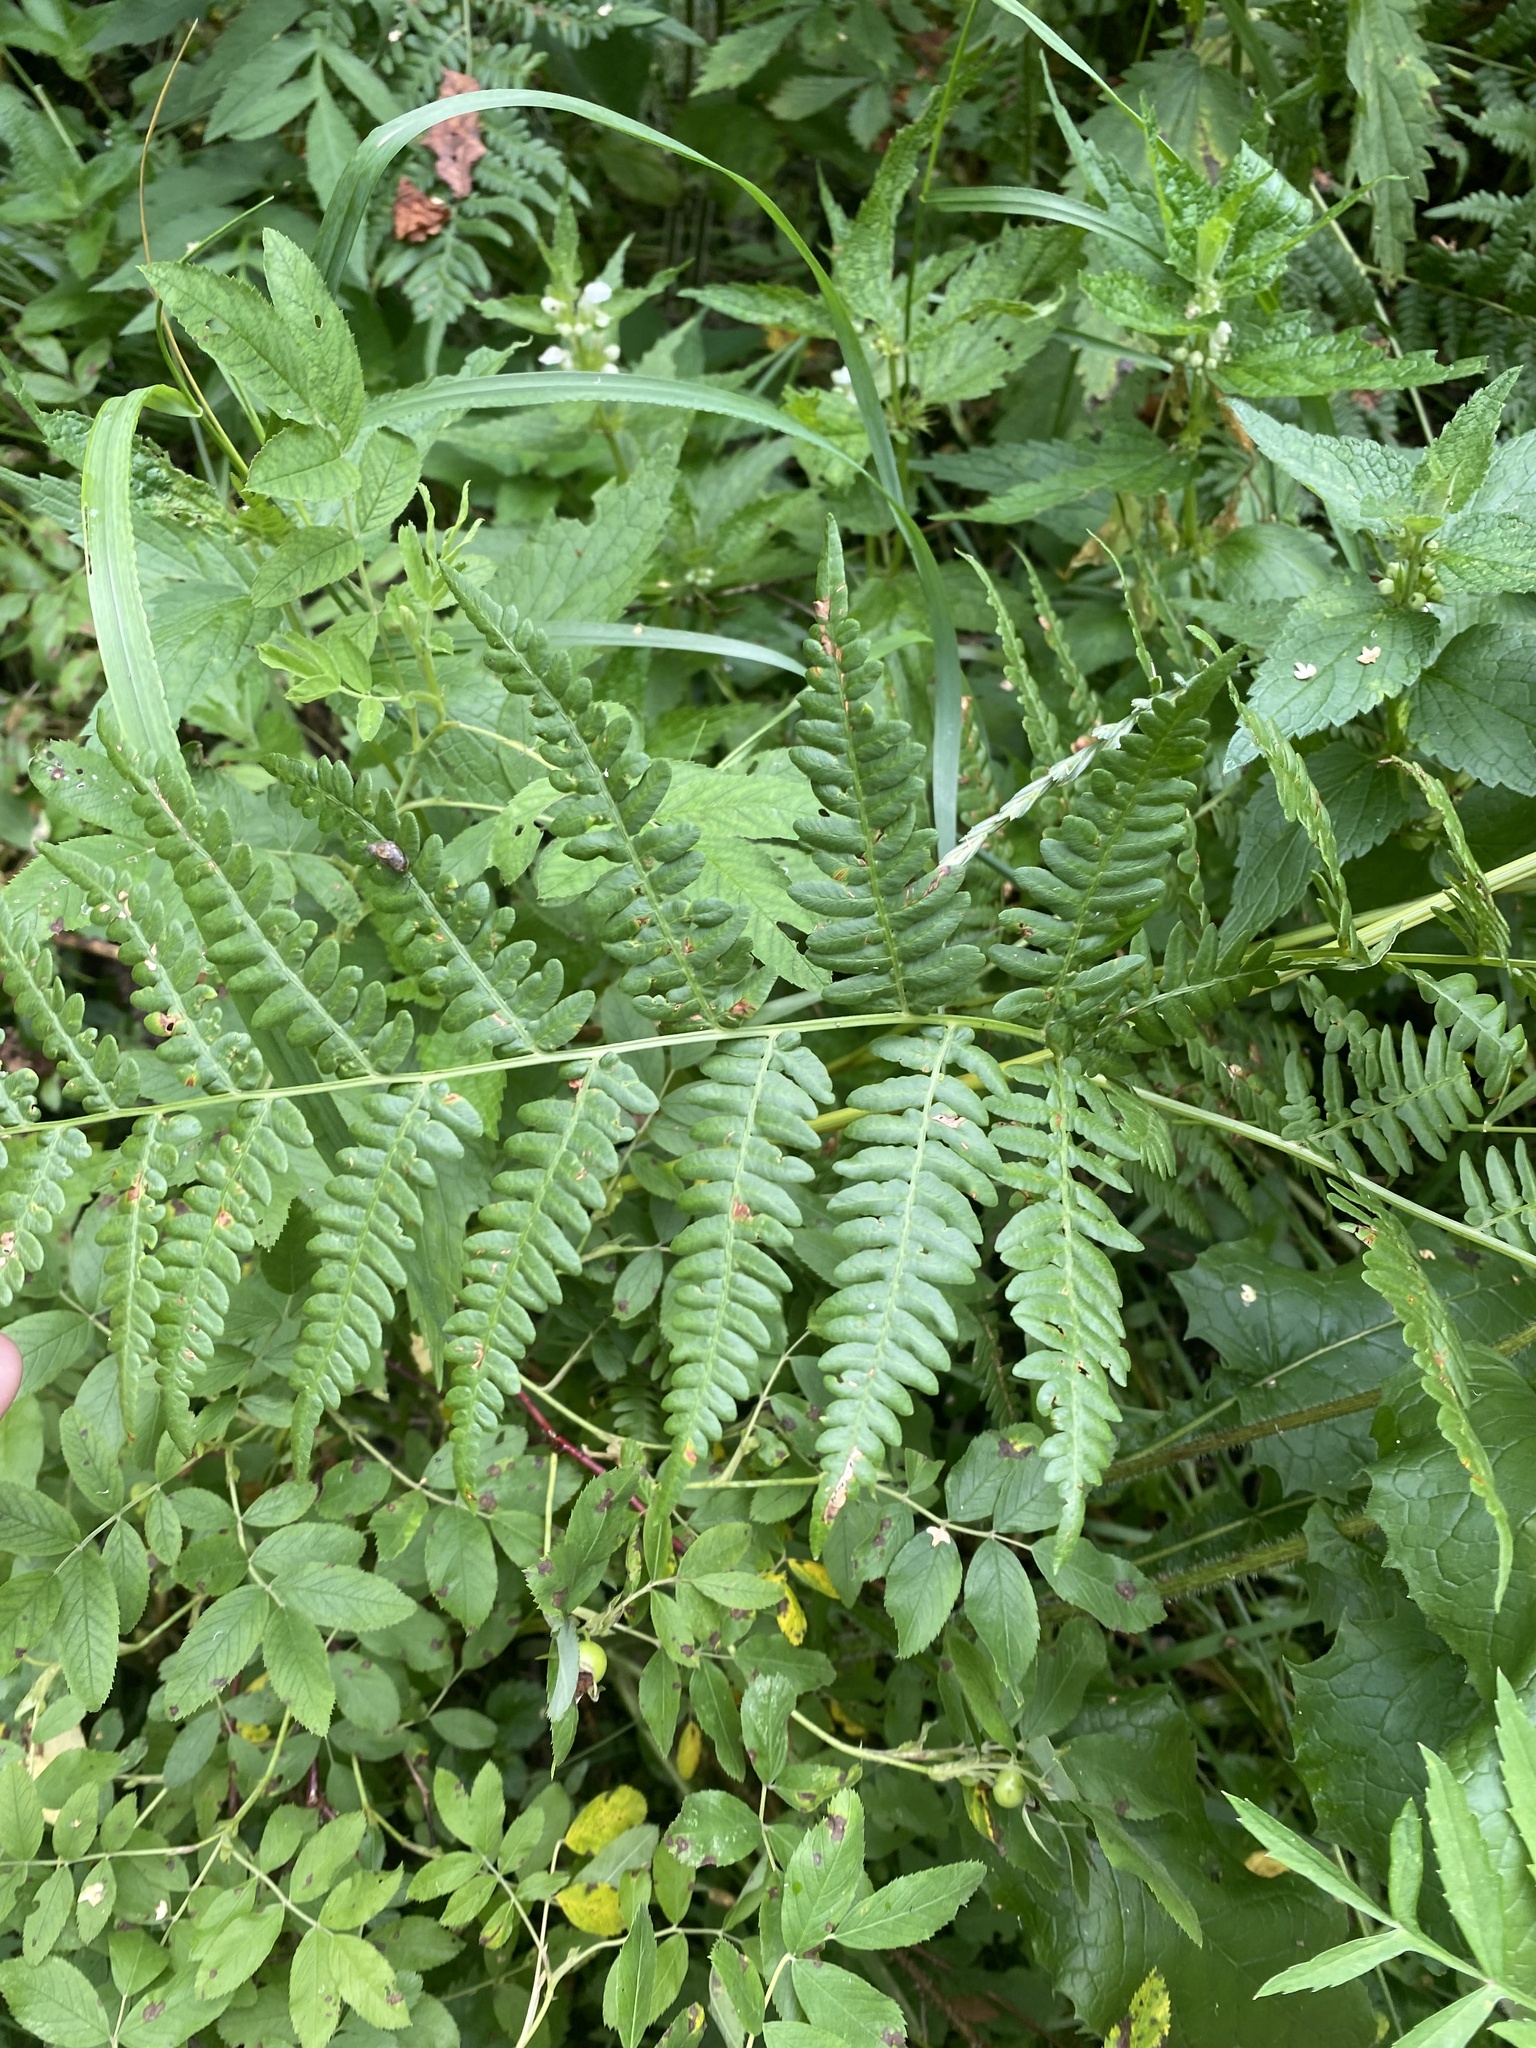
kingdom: Plantae
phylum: Tracheophyta
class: Polypodiopsida
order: Polypodiales
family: Dennstaedtiaceae
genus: Pteridium
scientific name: Pteridium aquilinum
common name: Bracken
